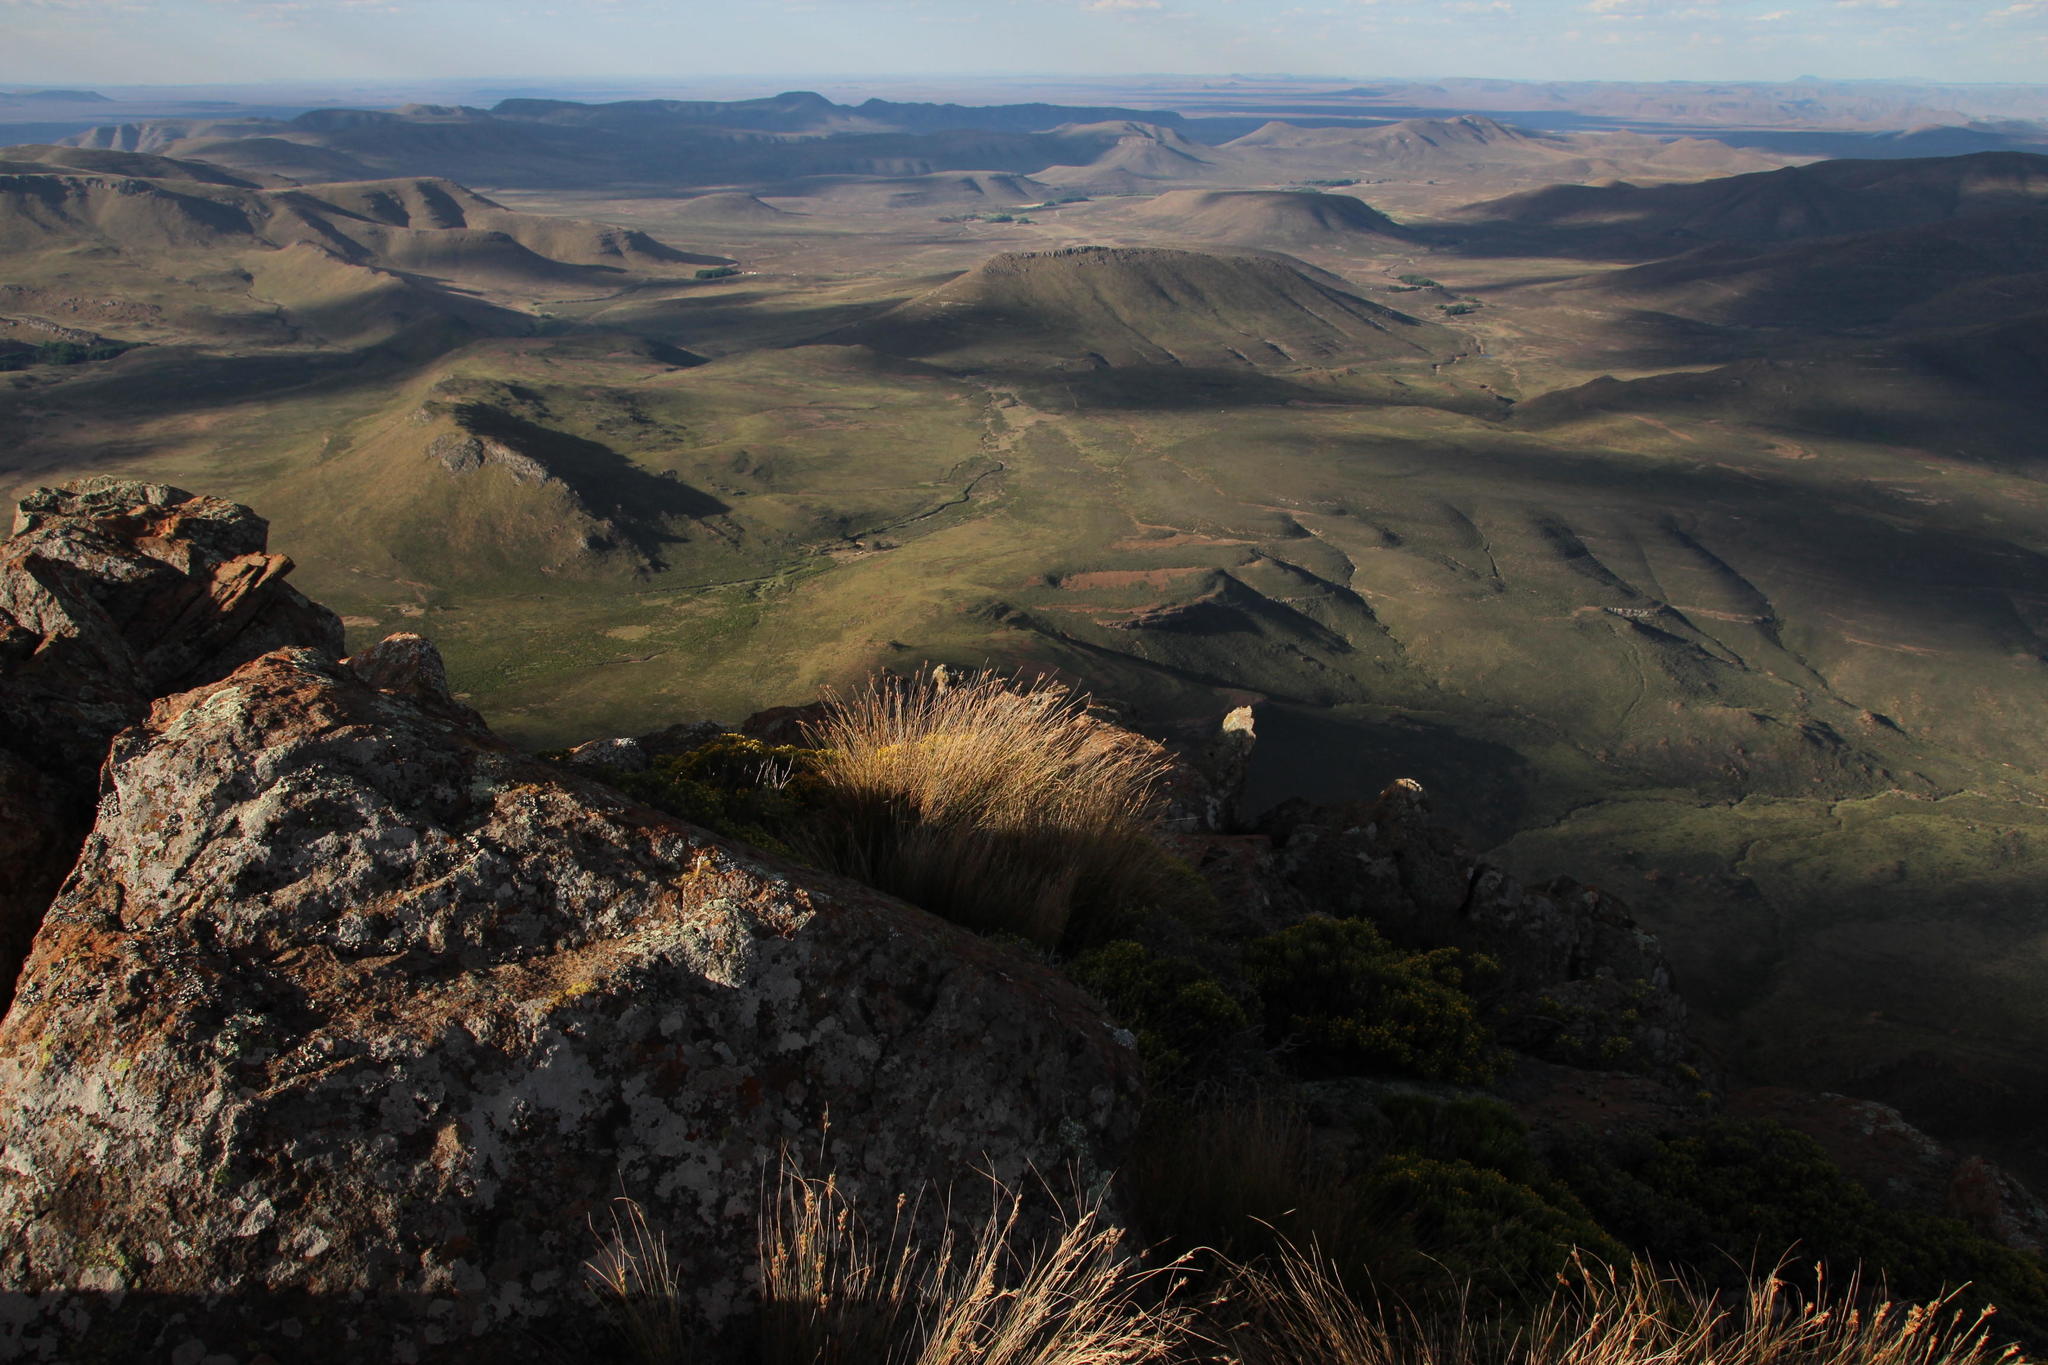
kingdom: Plantae
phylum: Tracheophyta
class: Liliopsida
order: Poales
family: Cyperaceae
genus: Ficinia
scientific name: Ficinia compasbergensis
